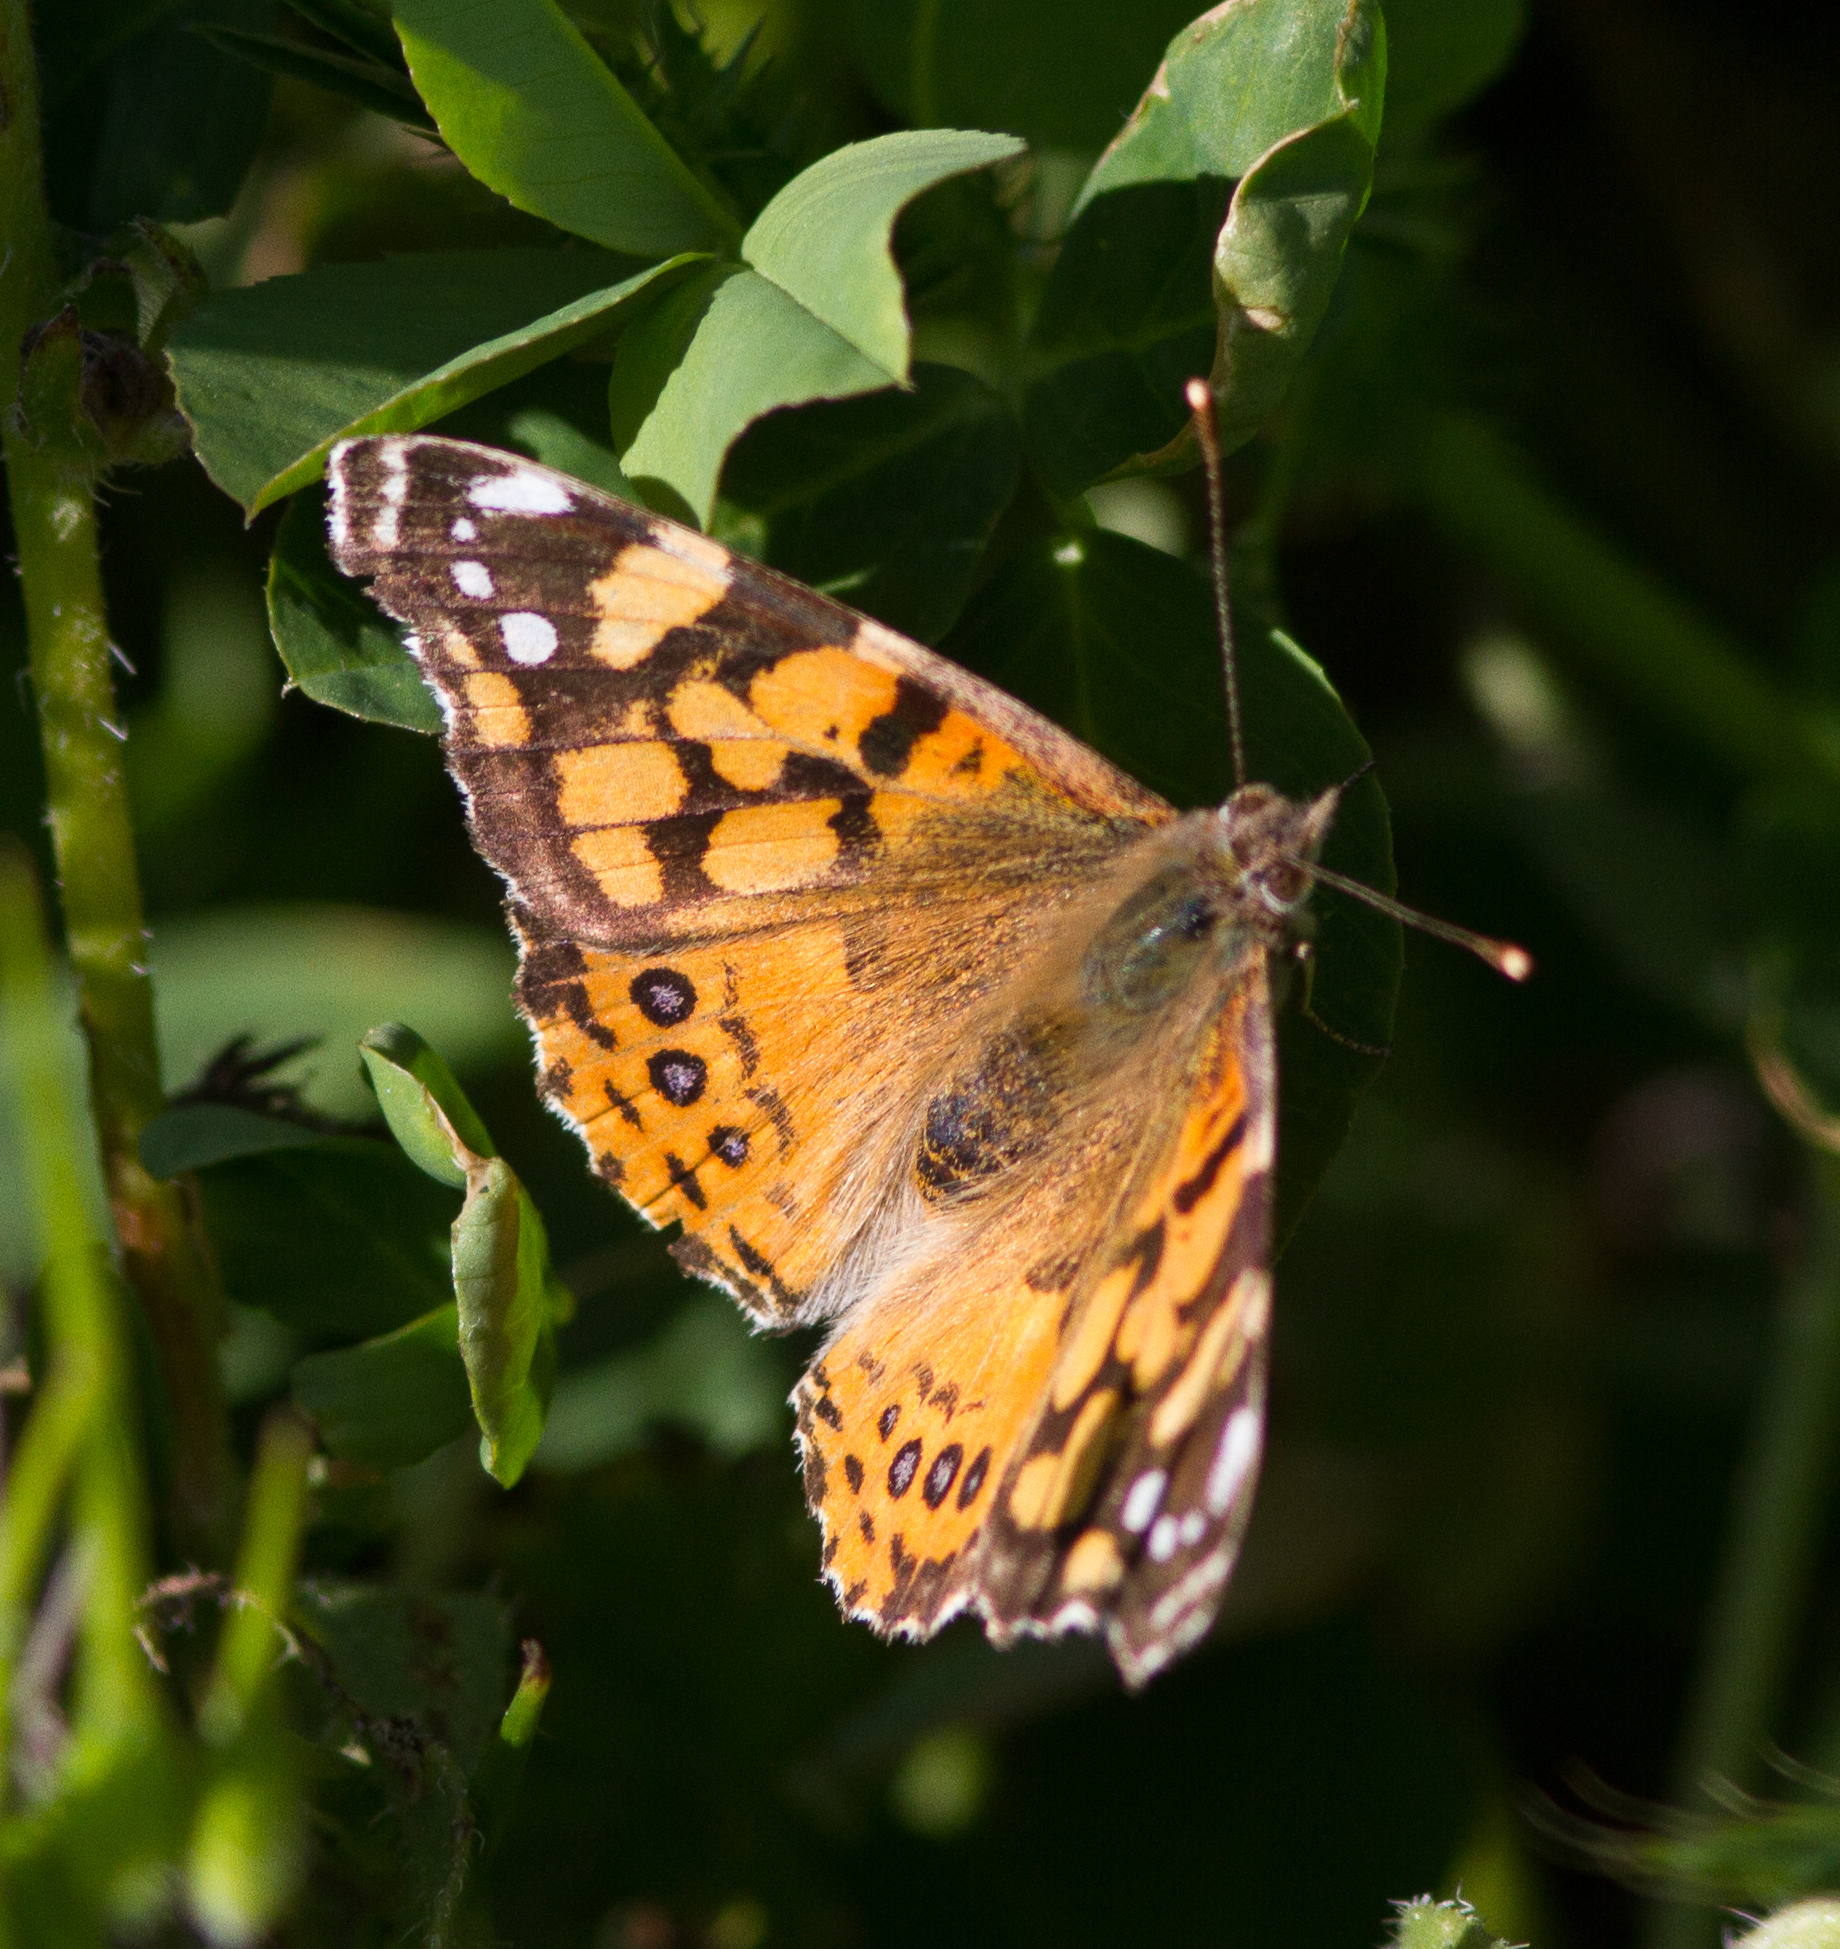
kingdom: Animalia
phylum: Arthropoda
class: Insecta
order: Lepidoptera
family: Nymphalidae
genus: Vanessa
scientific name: Vanessa annabella
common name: West coast lady
